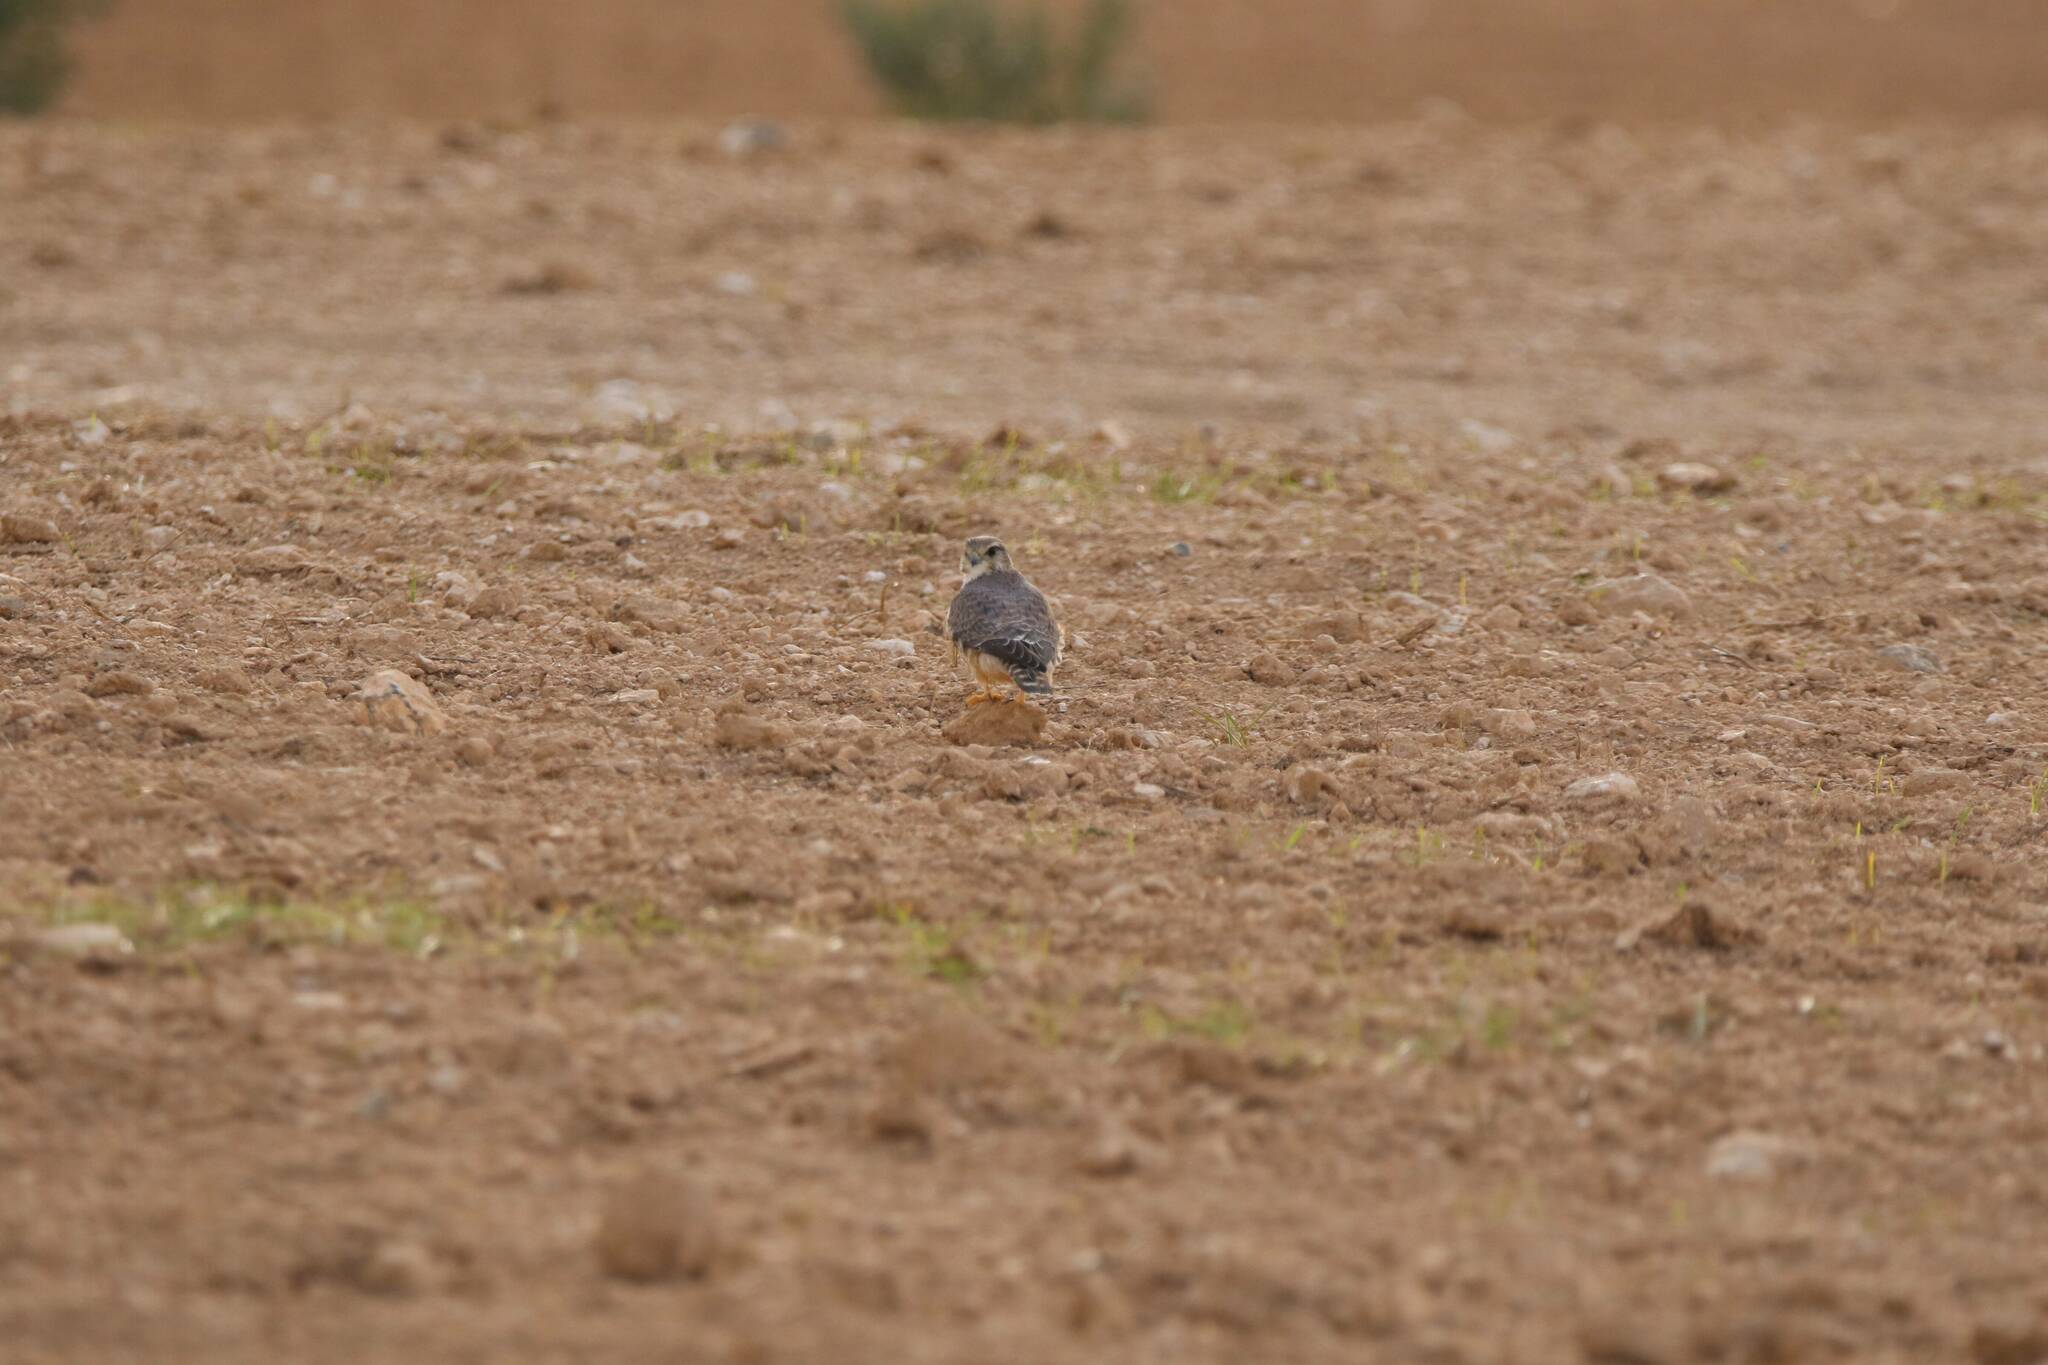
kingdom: Animalia
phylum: Chordata
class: Aves
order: Falconiformes
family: Falconidae
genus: Falco
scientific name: Falco columbarius
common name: Merlin
